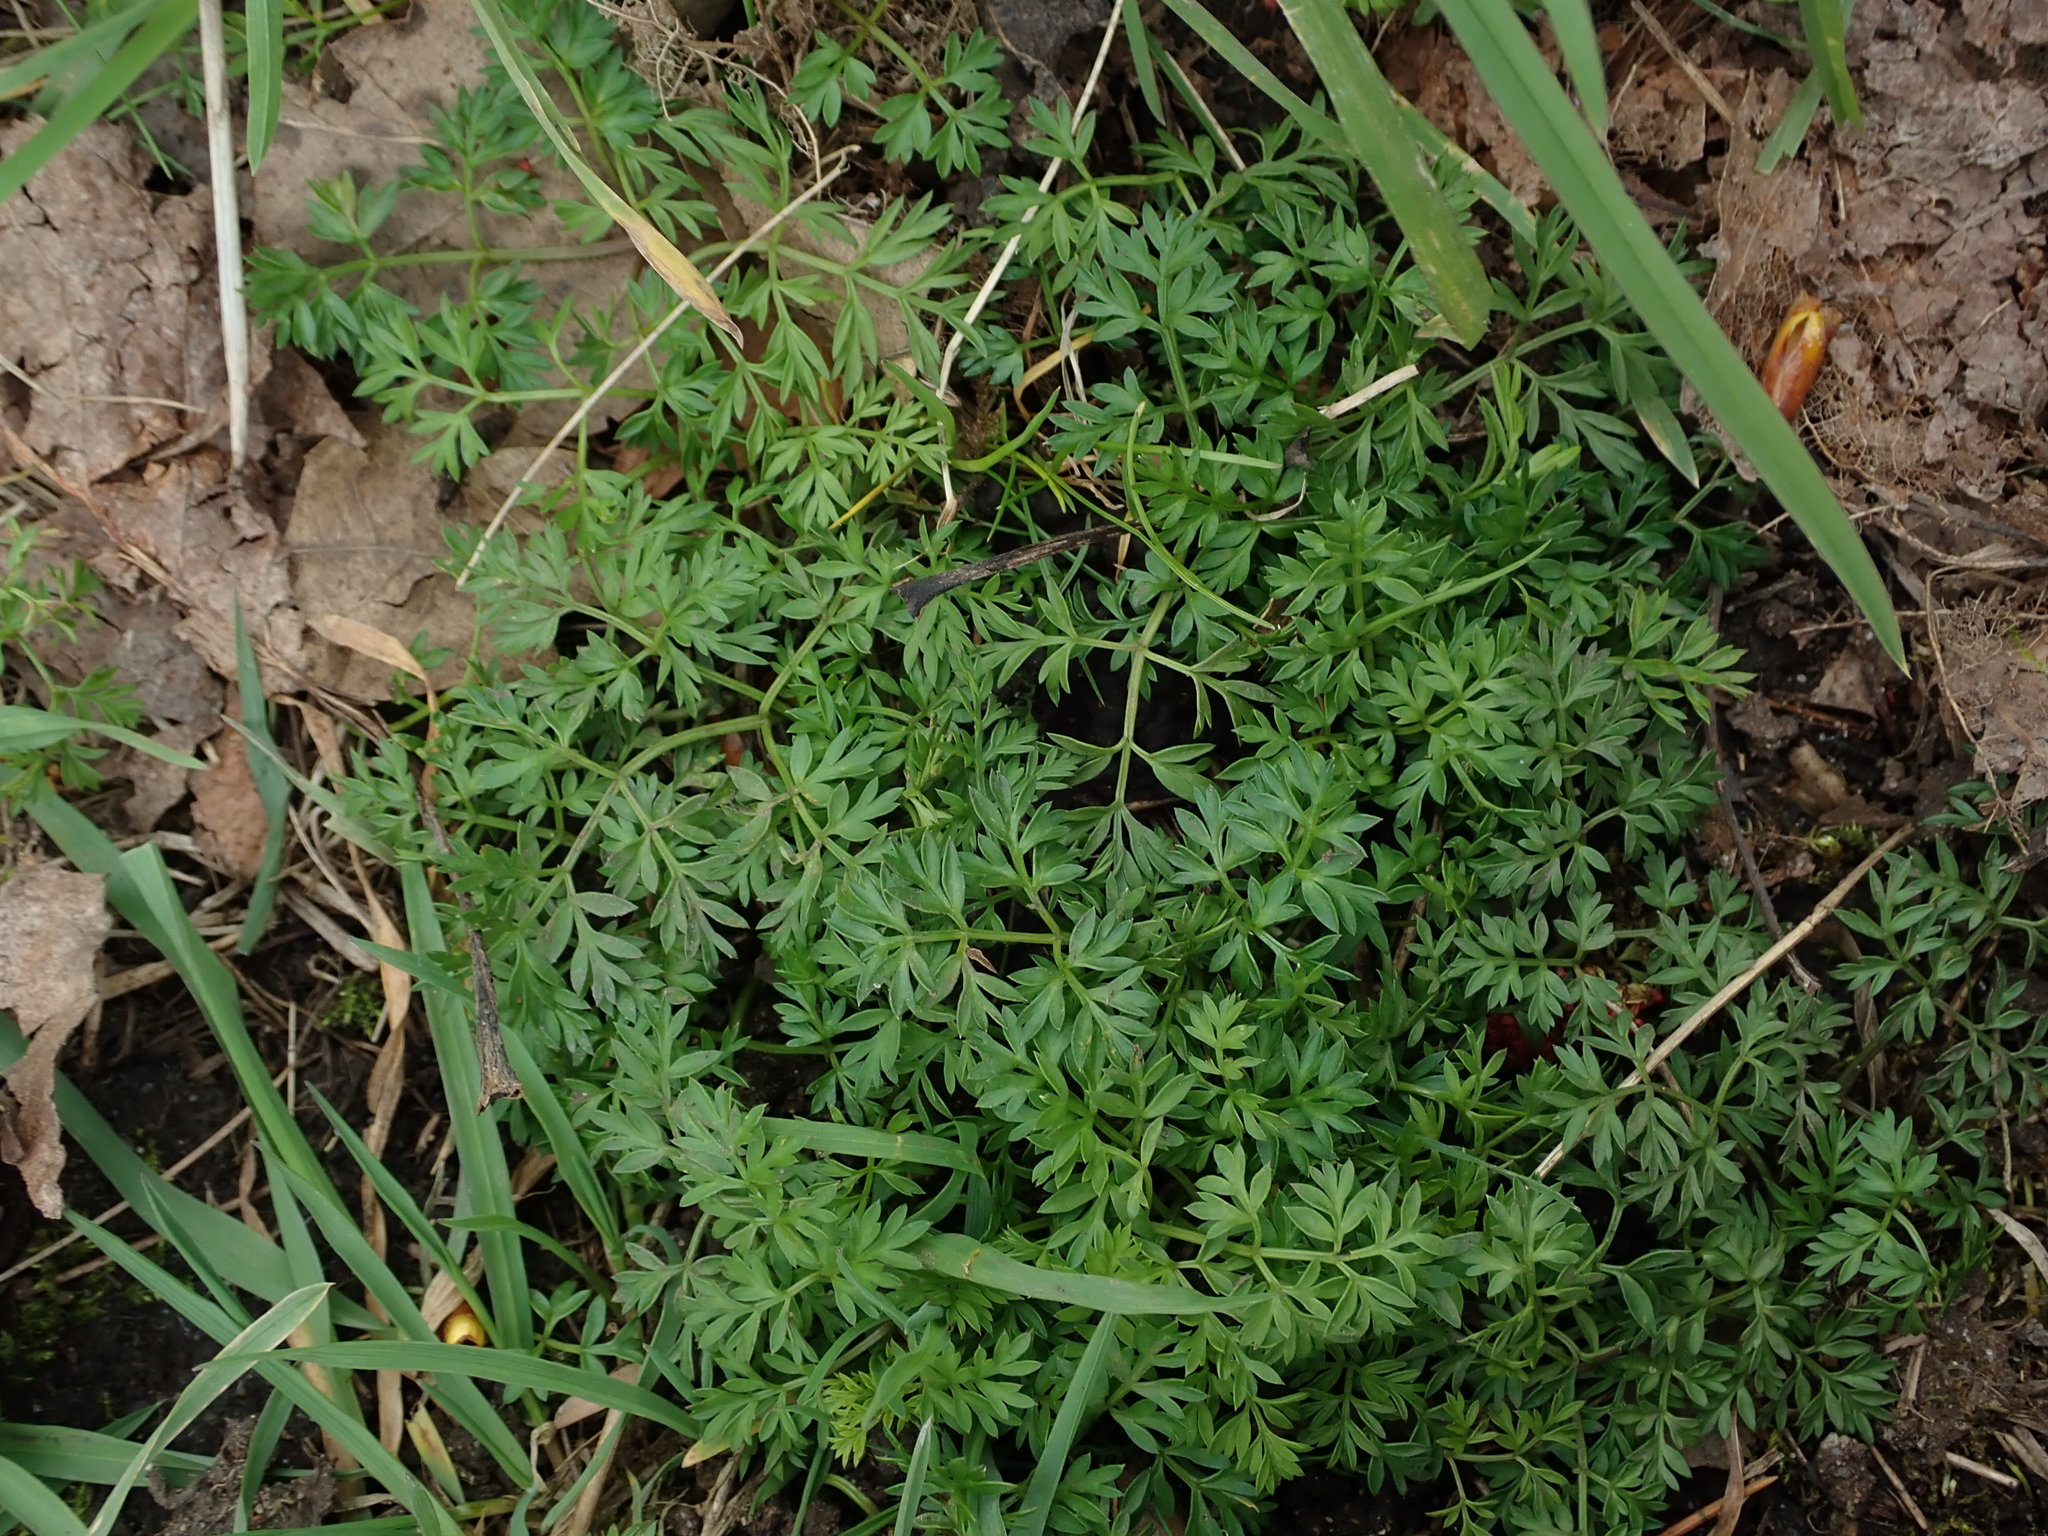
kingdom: Plantae
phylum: Tracheophyta
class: Magnoliopsida
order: Apiales
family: Apiaceae
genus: Conopodium
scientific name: Conopodium majus
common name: Pignut
